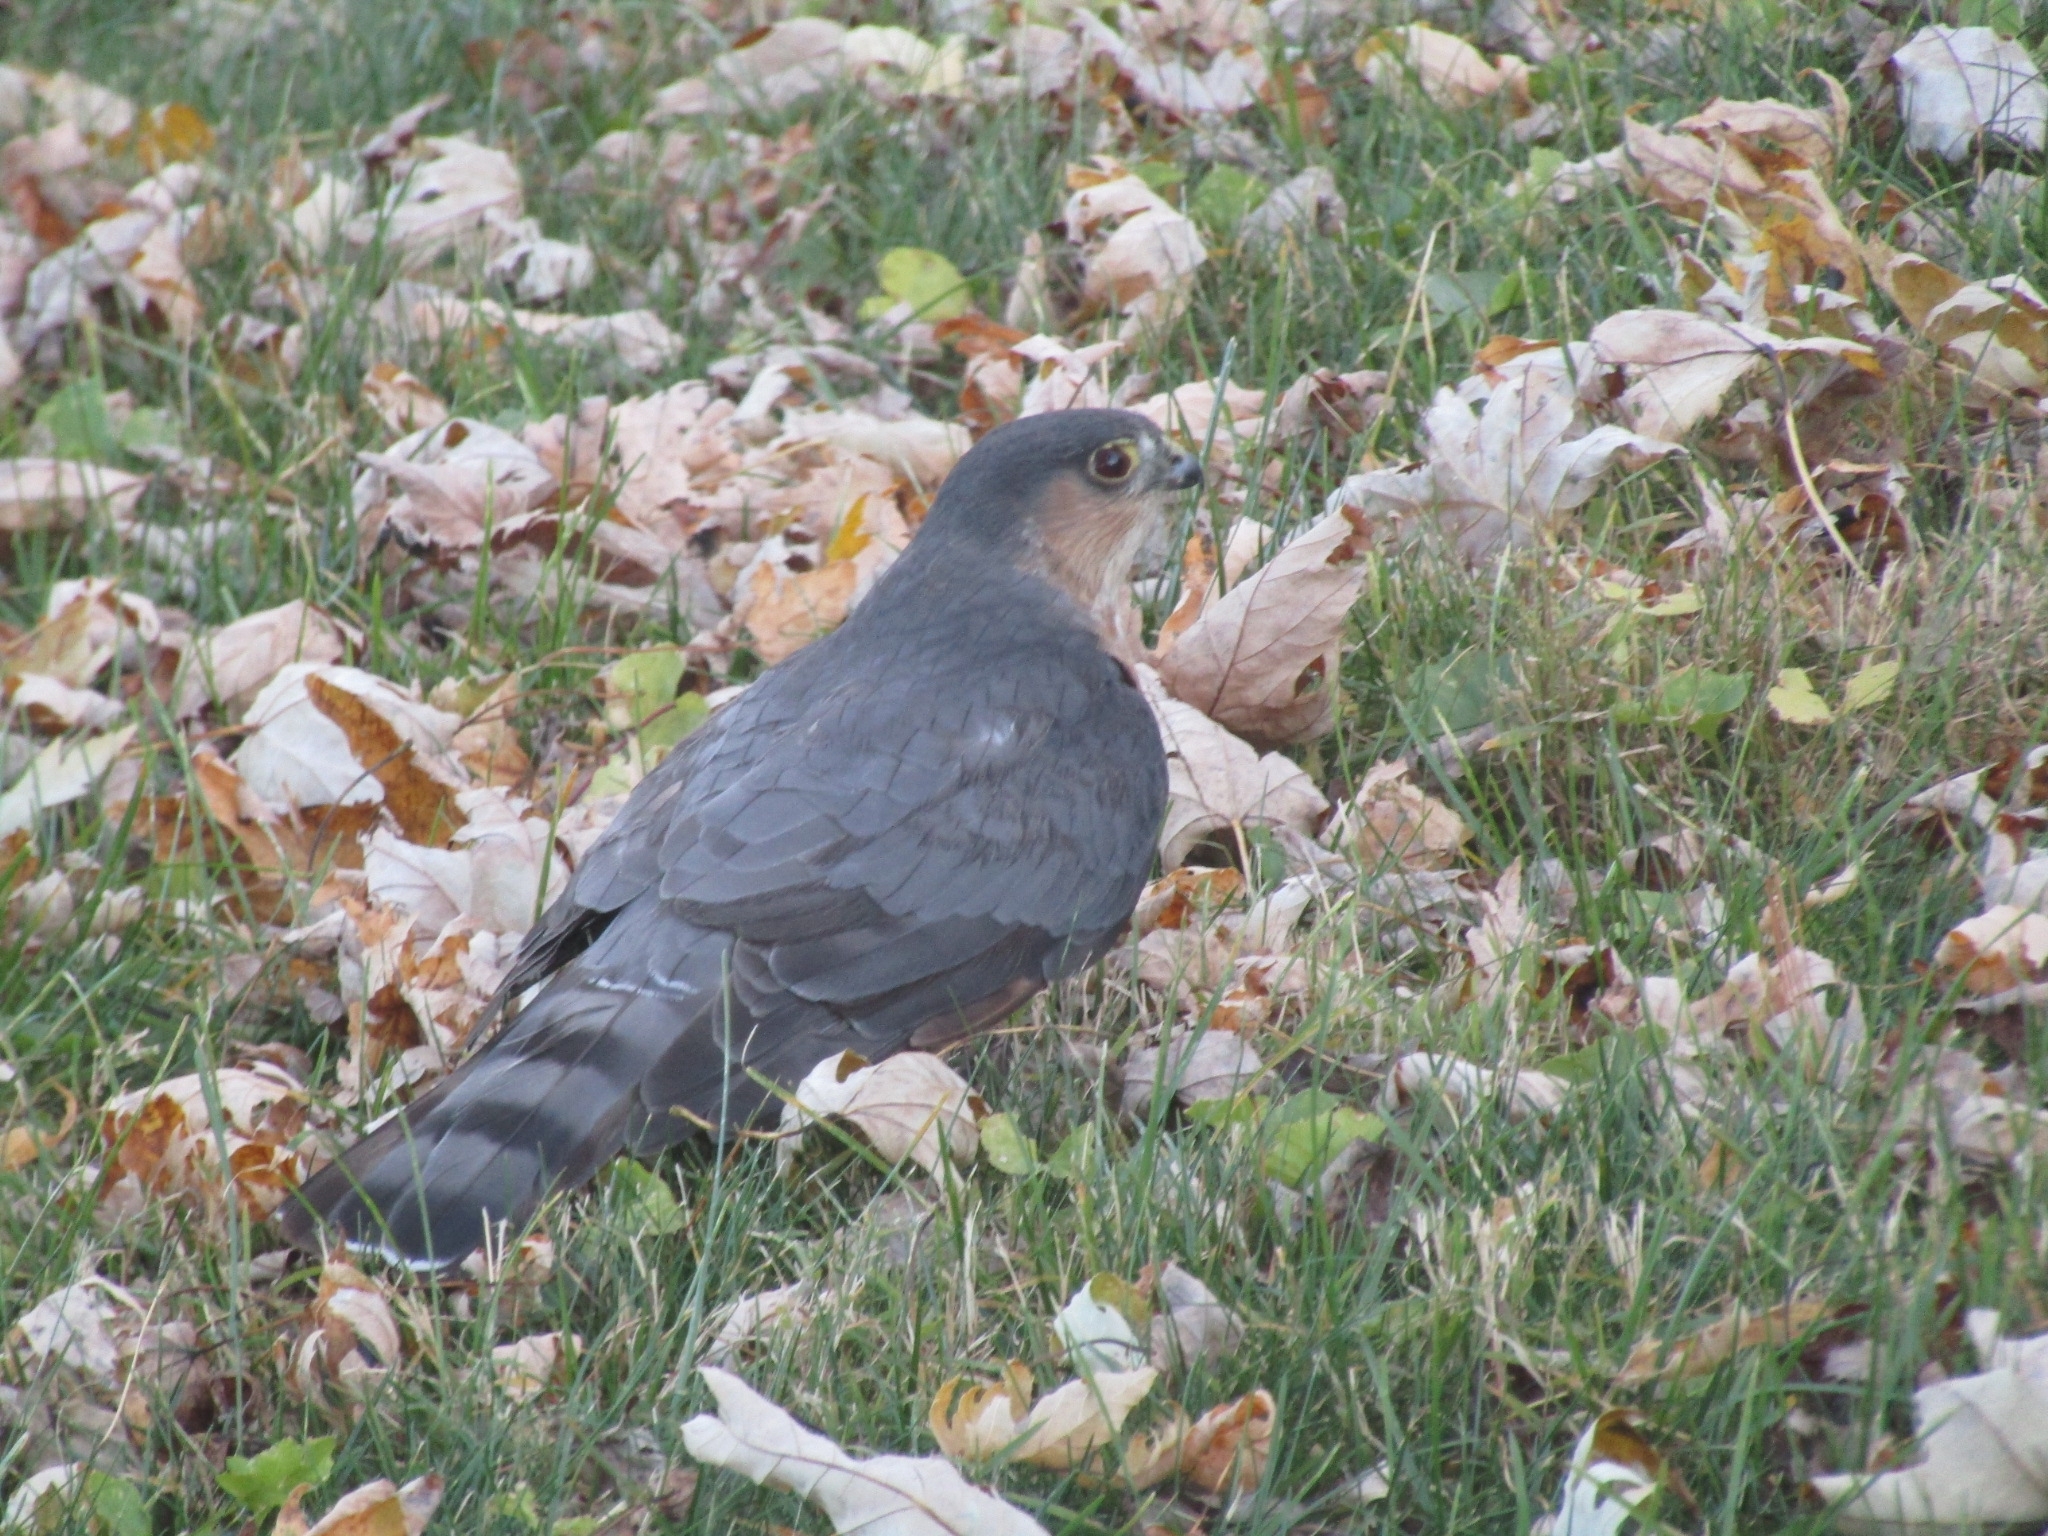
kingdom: Animalia
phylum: Chordata
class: Aves
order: Accipitriformes
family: Accipitridae
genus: Accipiter
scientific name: Accipiter striatus
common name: Sharp-shinned hawk
